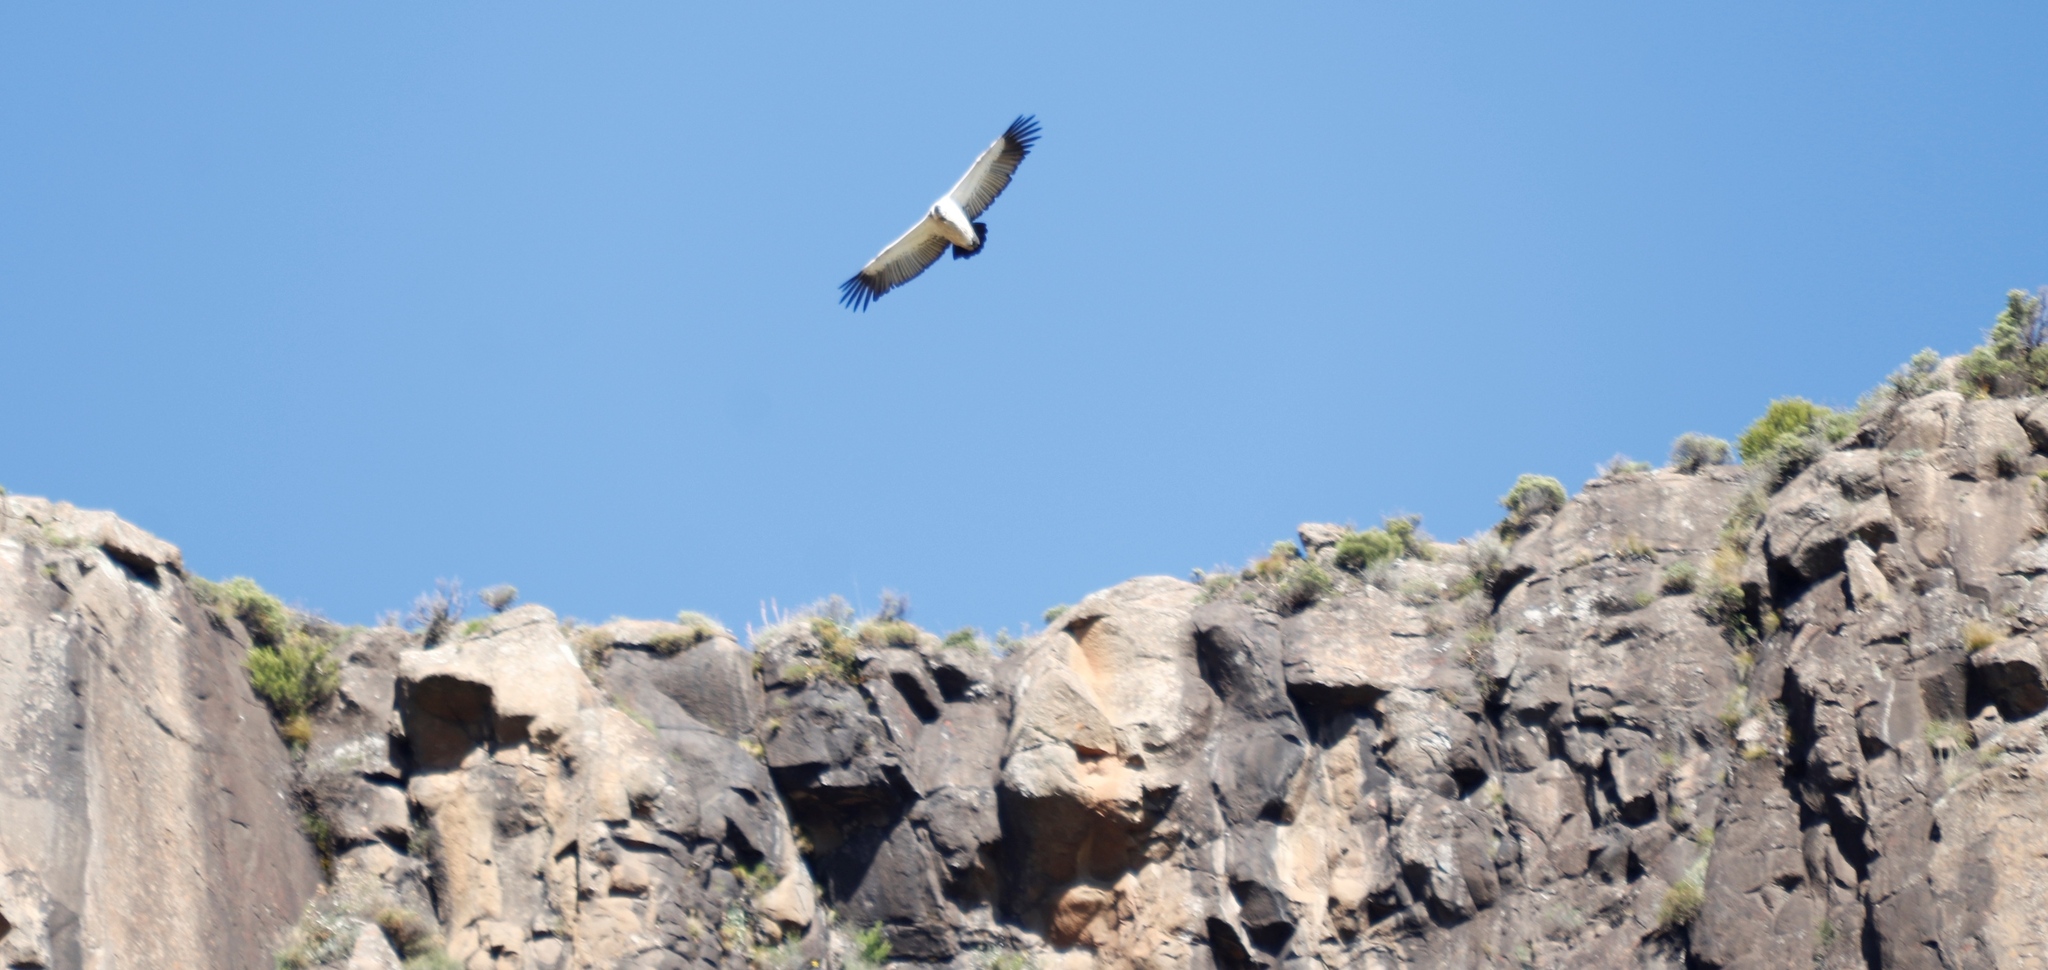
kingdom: Animalia
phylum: Chordata
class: Aves
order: Accipitriformes
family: Accipitridae
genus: Gyps
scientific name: Gyps coprotheres
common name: Cape vulture
